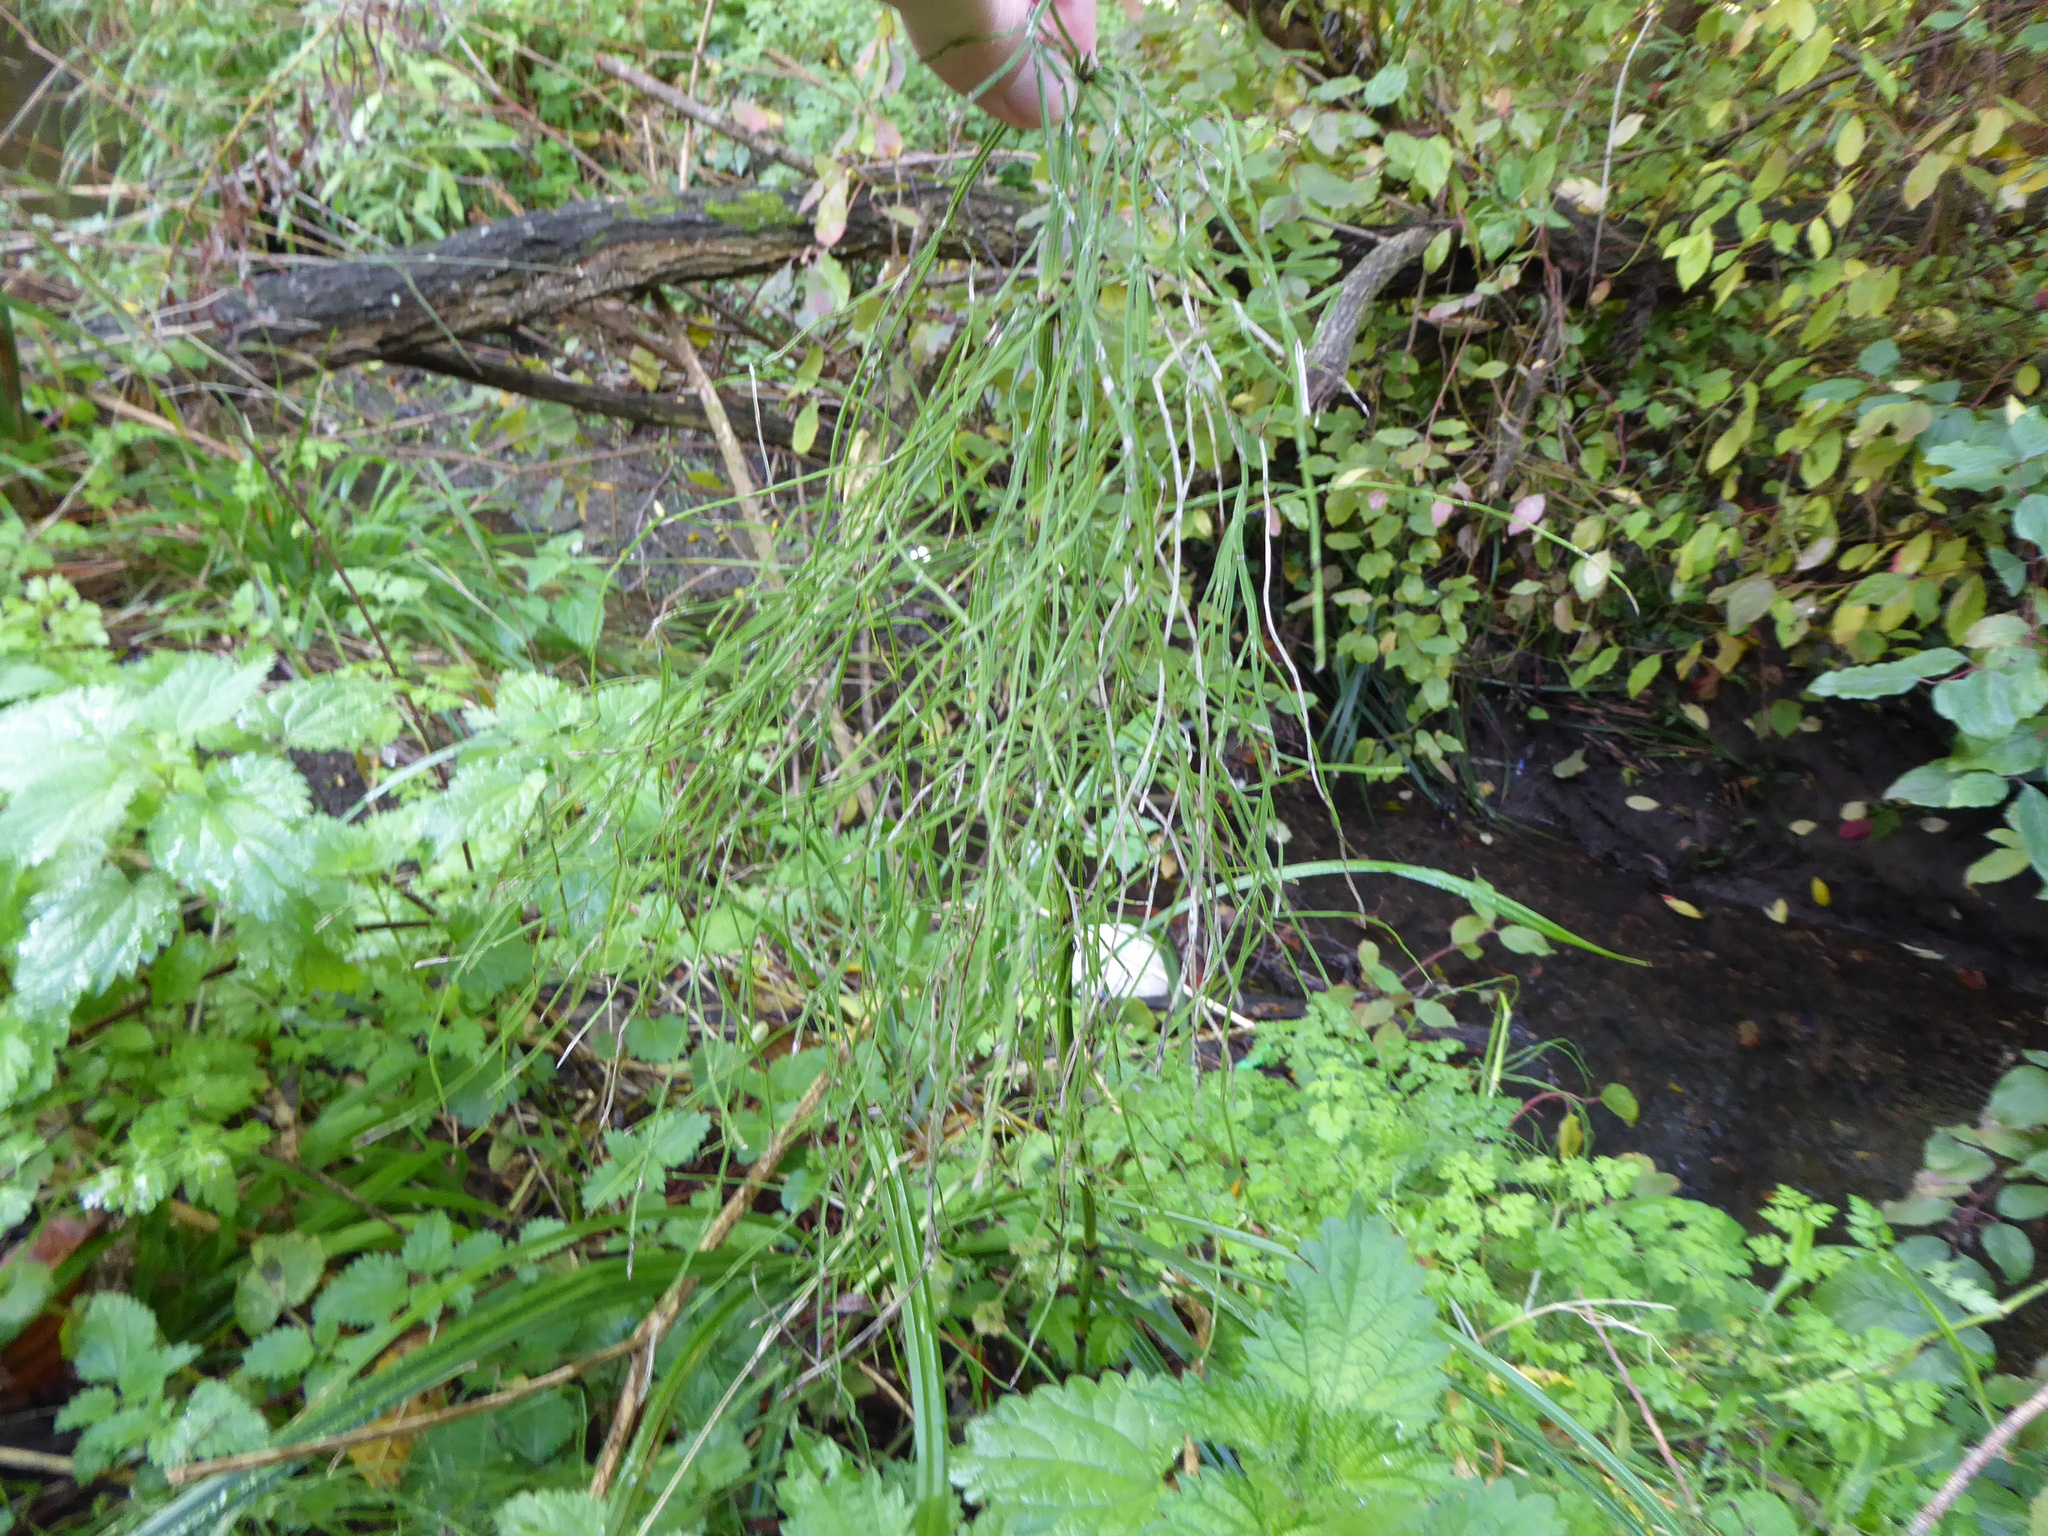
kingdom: Plantae
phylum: Tracheophyta
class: Polypodiopsida
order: Equisetales
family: Equisetaceae
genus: Equisetum
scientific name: Equisetum arvense
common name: Field horsetail
